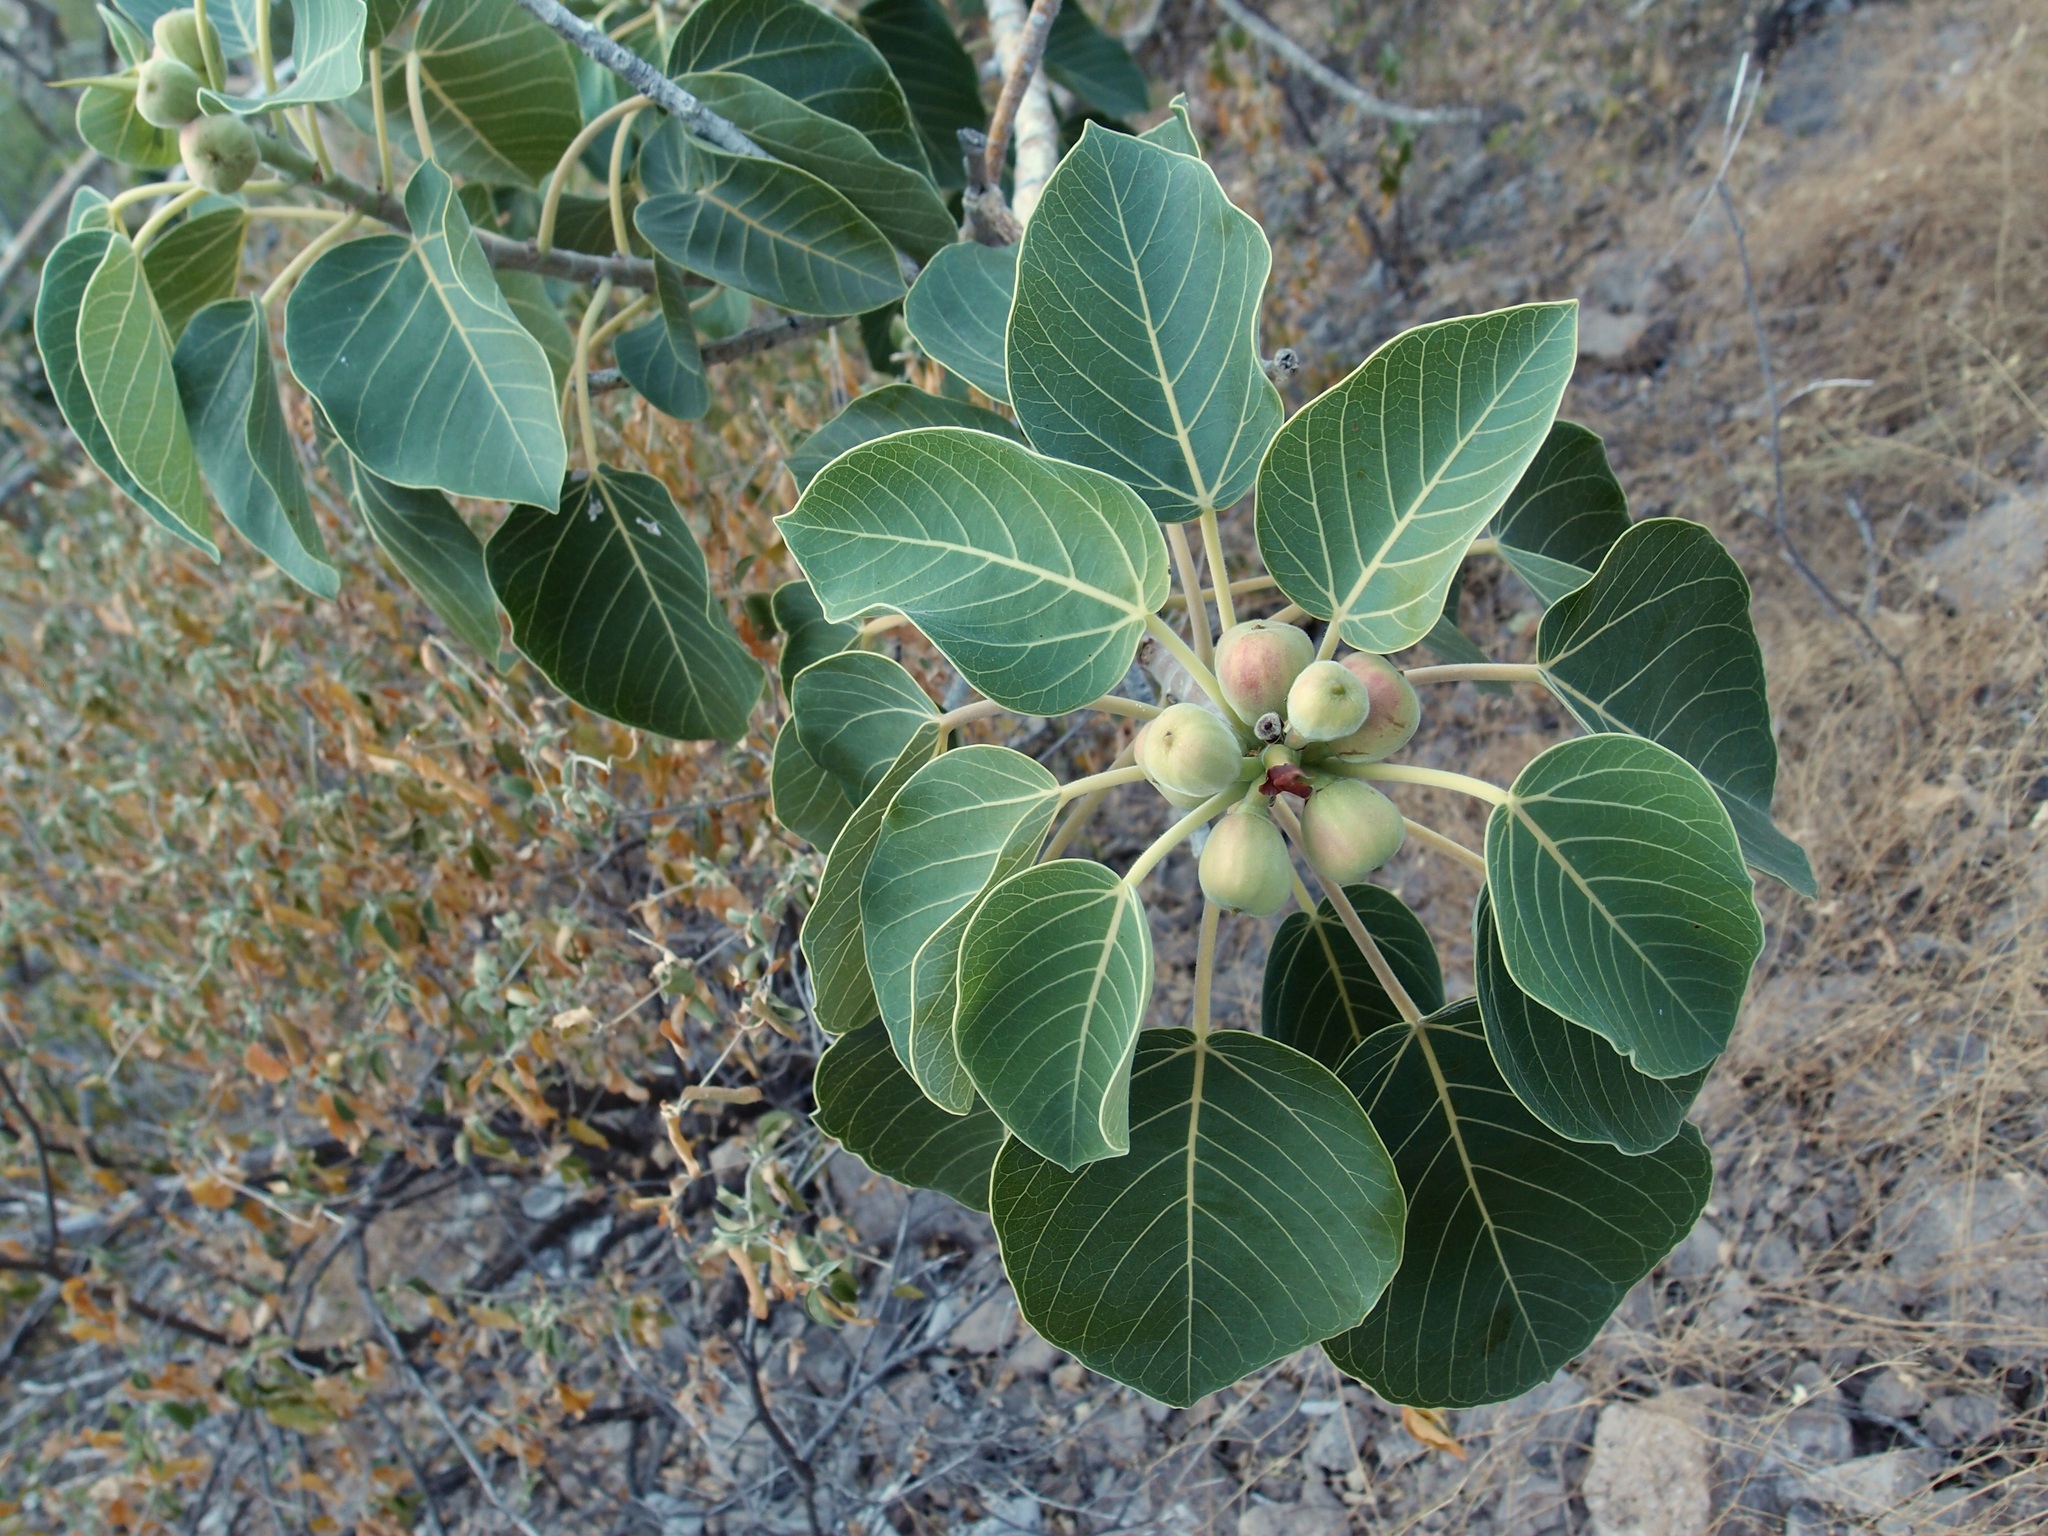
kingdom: Plantae
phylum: Tracheophyta
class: Magnoliopsida
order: Rosales
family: Moraceae
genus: Ficus
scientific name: Ficus petiolaris
